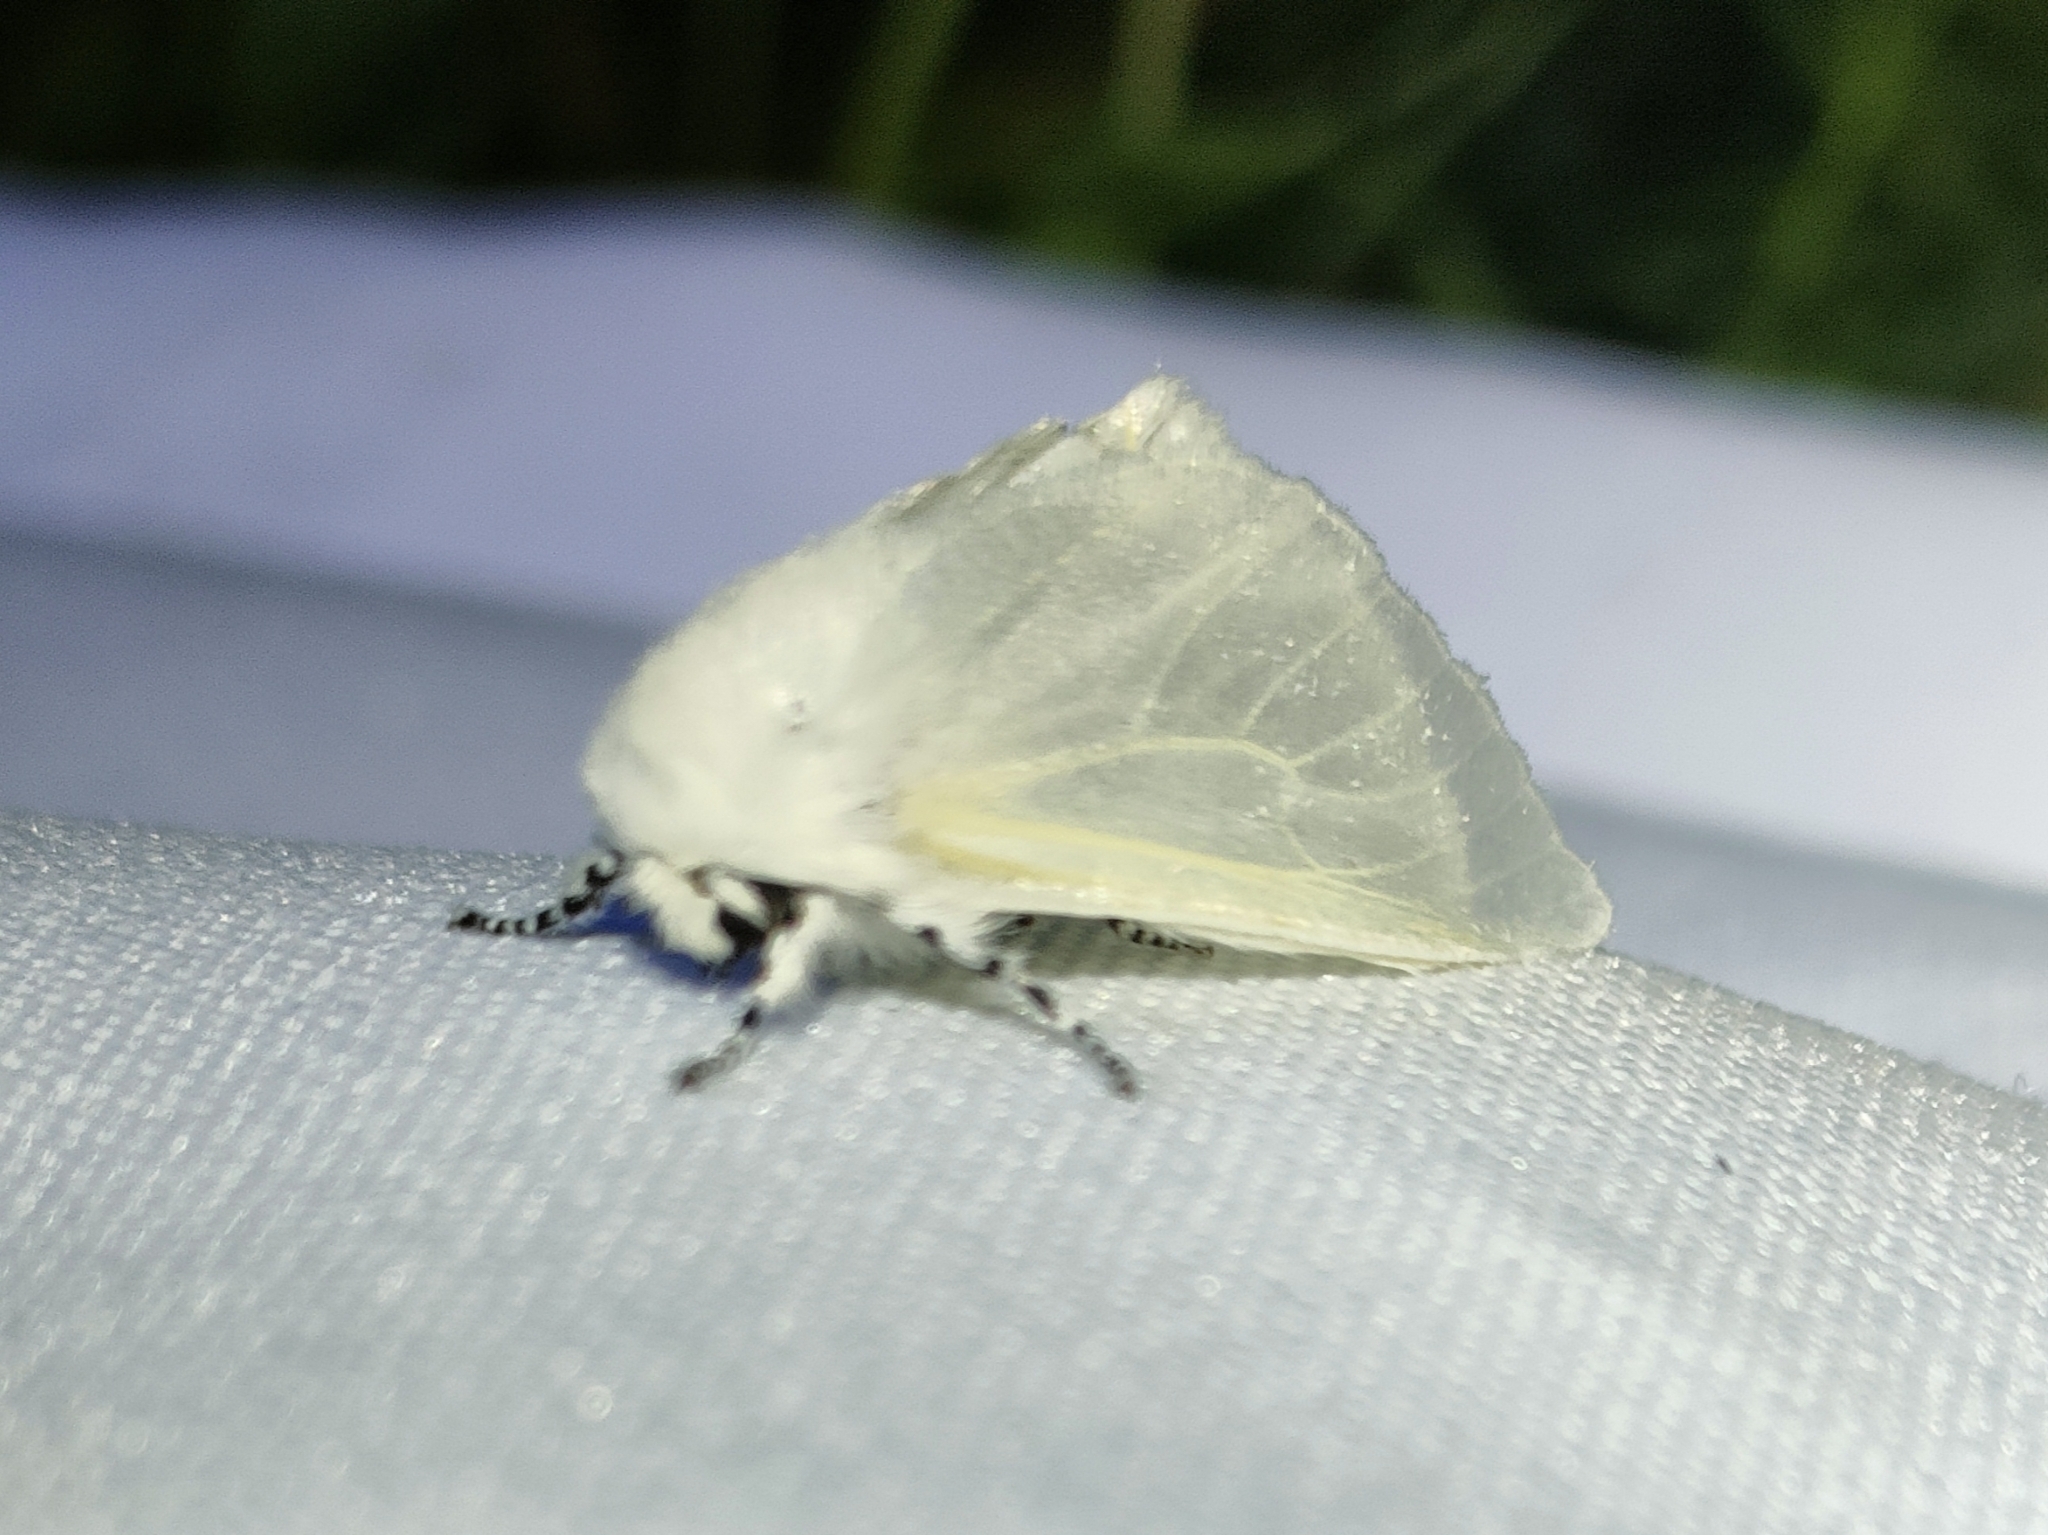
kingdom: Animalia
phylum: Arthropoda
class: Insecta
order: Lepidoptera
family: Erebidae
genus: Leucoma
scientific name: Leucoma salicis
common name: White satin moth
